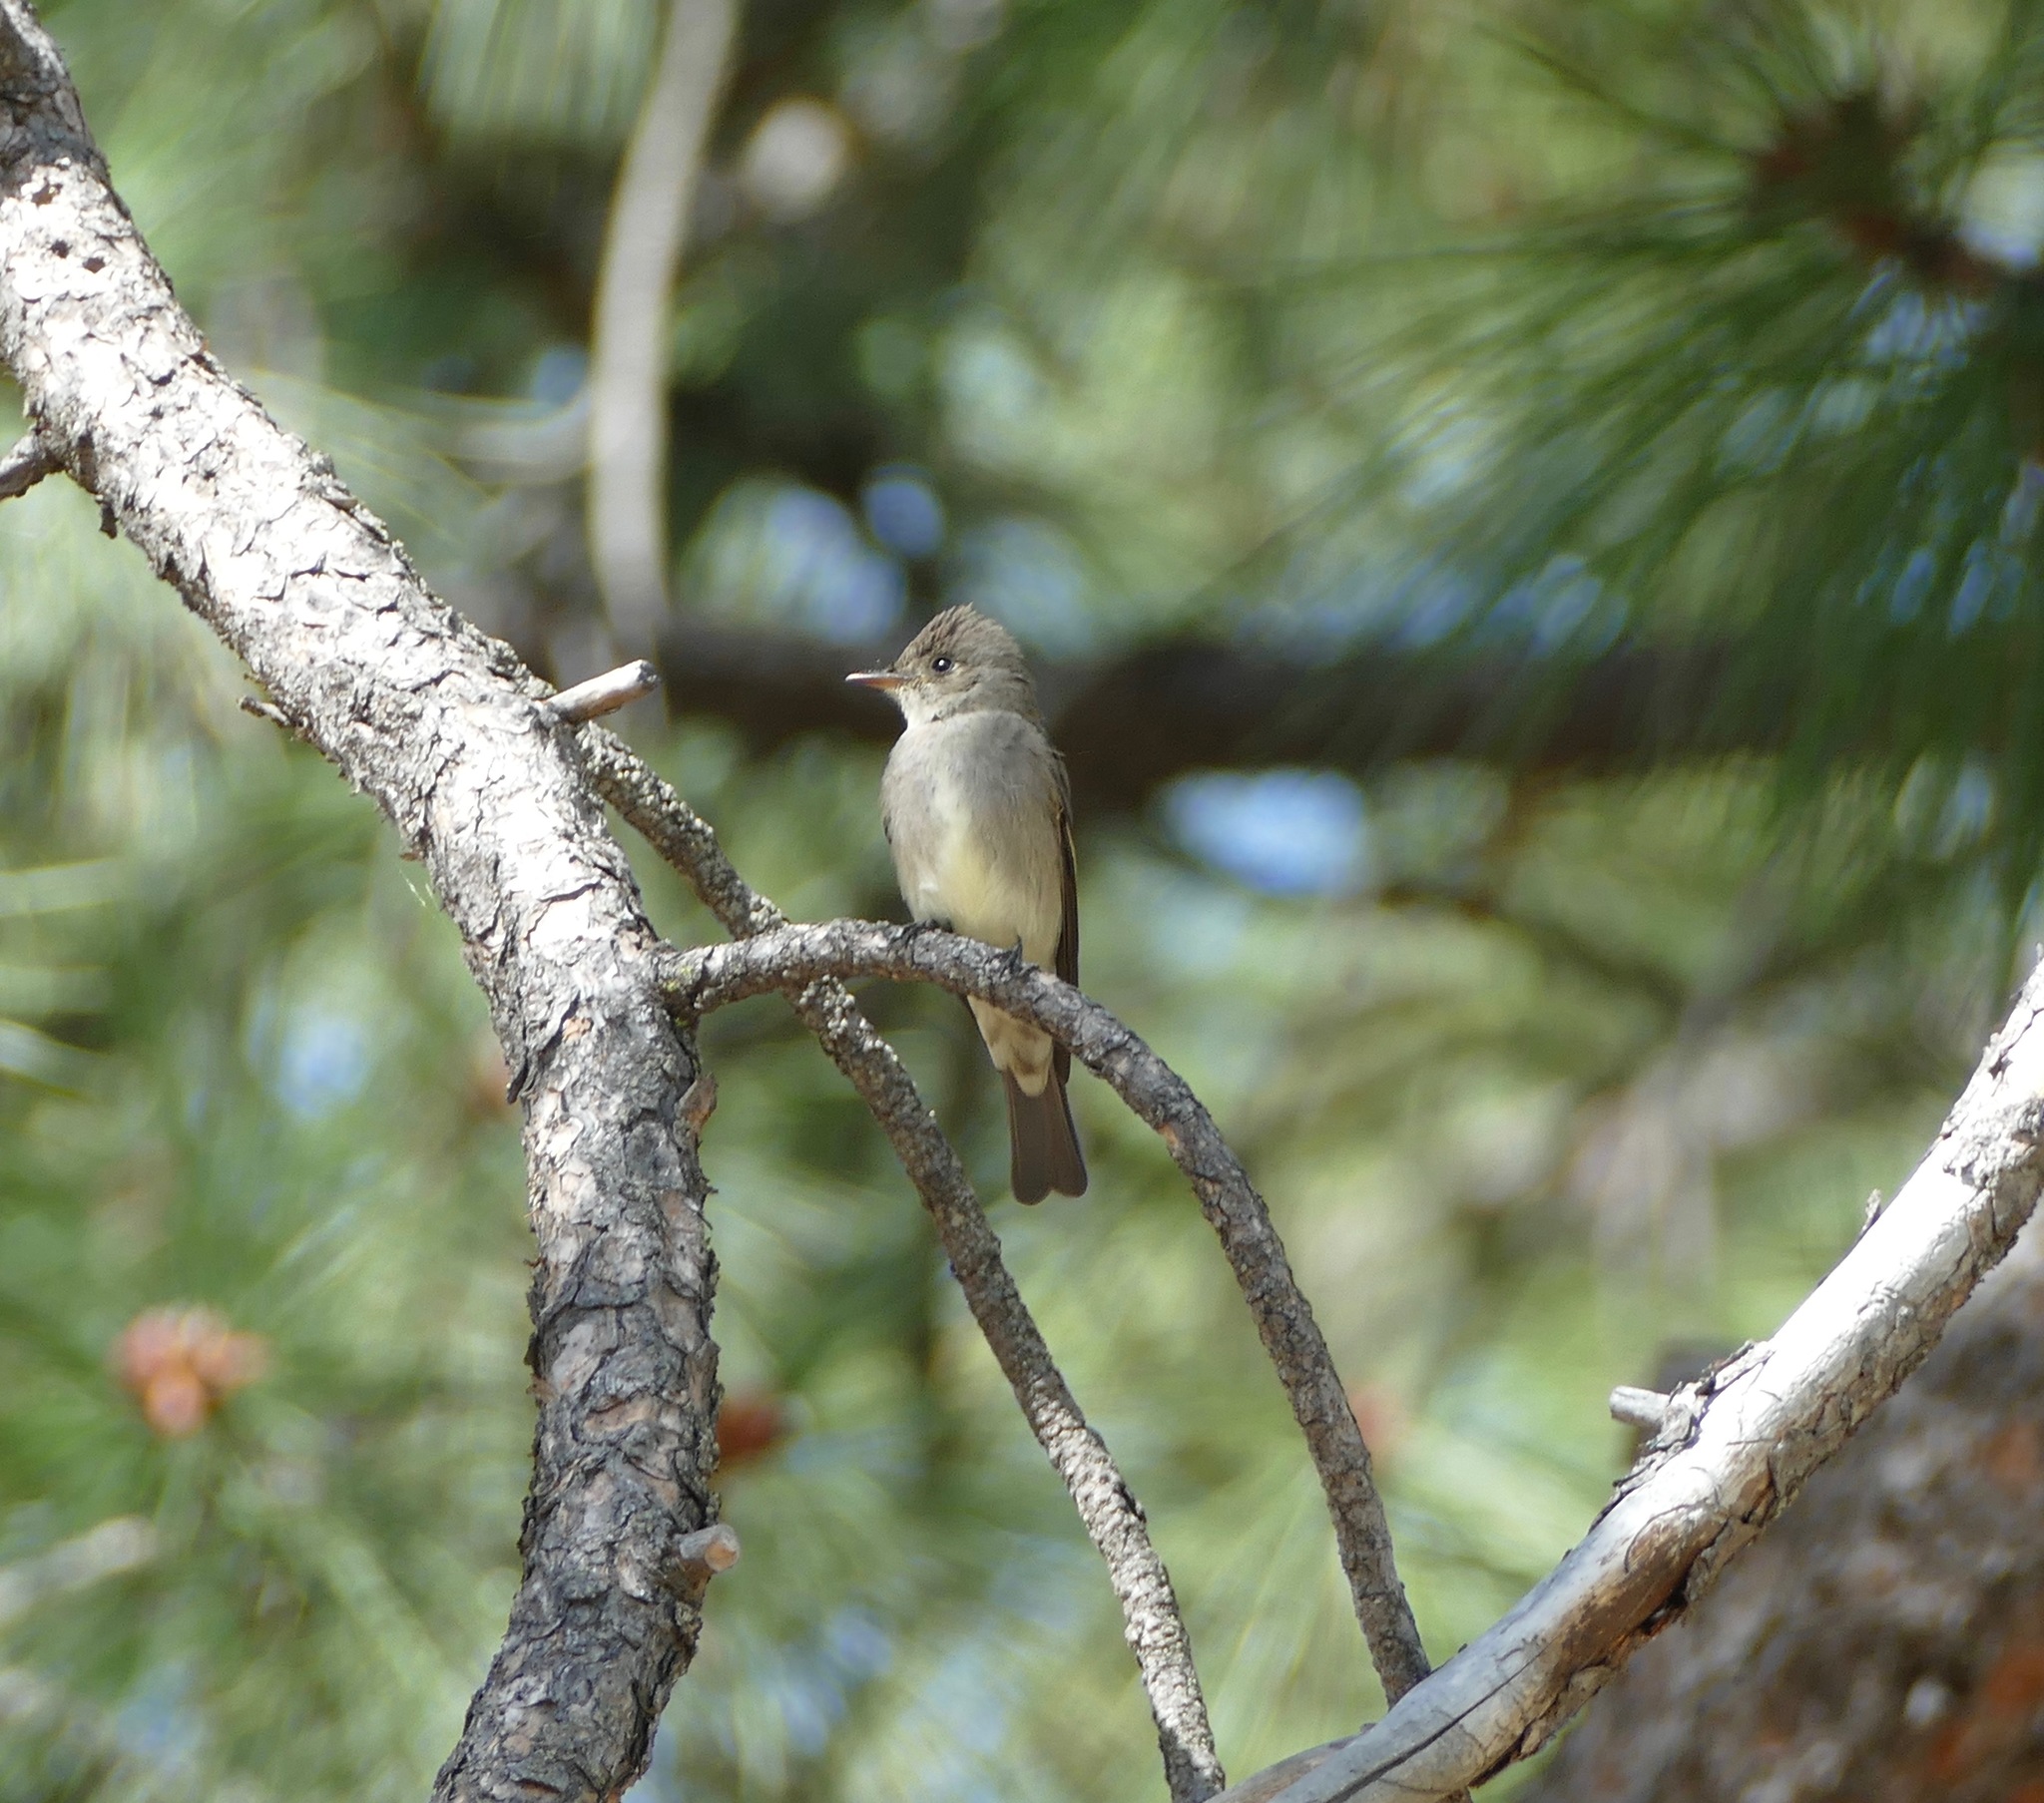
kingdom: Animalia
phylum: Chordata
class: Aves
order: Passeriformes
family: Tyrannidae
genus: Contopus
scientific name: Contopus sordidulus
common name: Western wood-pewee
